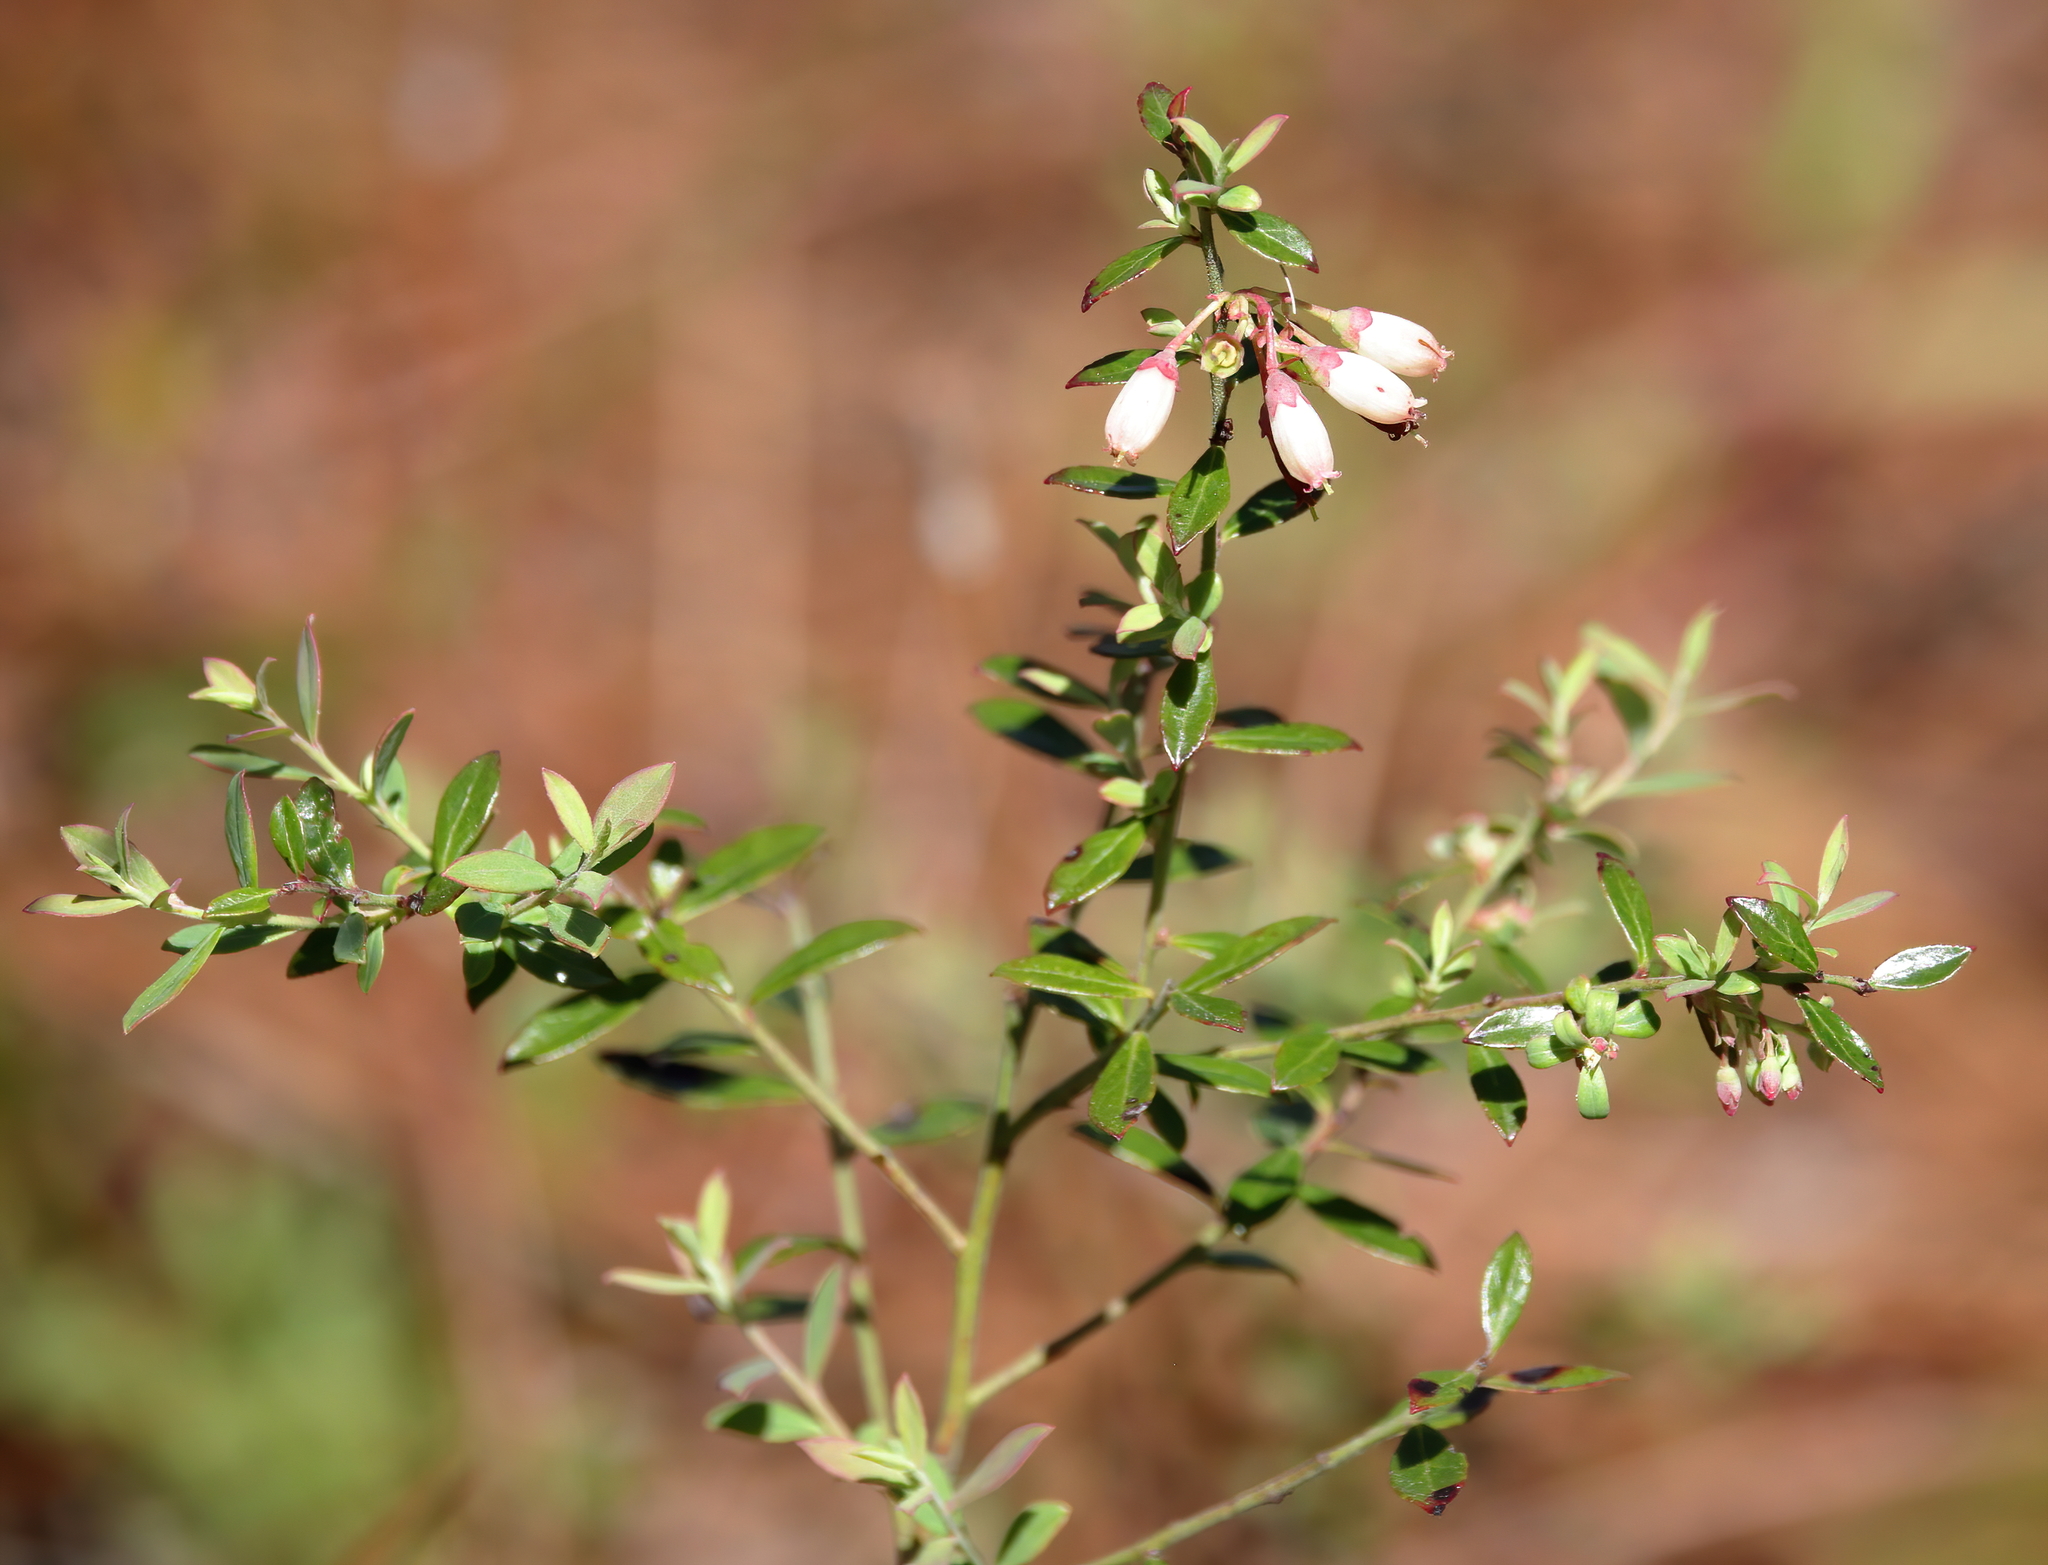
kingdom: Plantae
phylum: Tracheophyta
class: Magnoliopsida
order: Ericales
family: Ericaceae
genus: Vaccinium
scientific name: Vaccinium darrowii
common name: Darrow's blueberry
